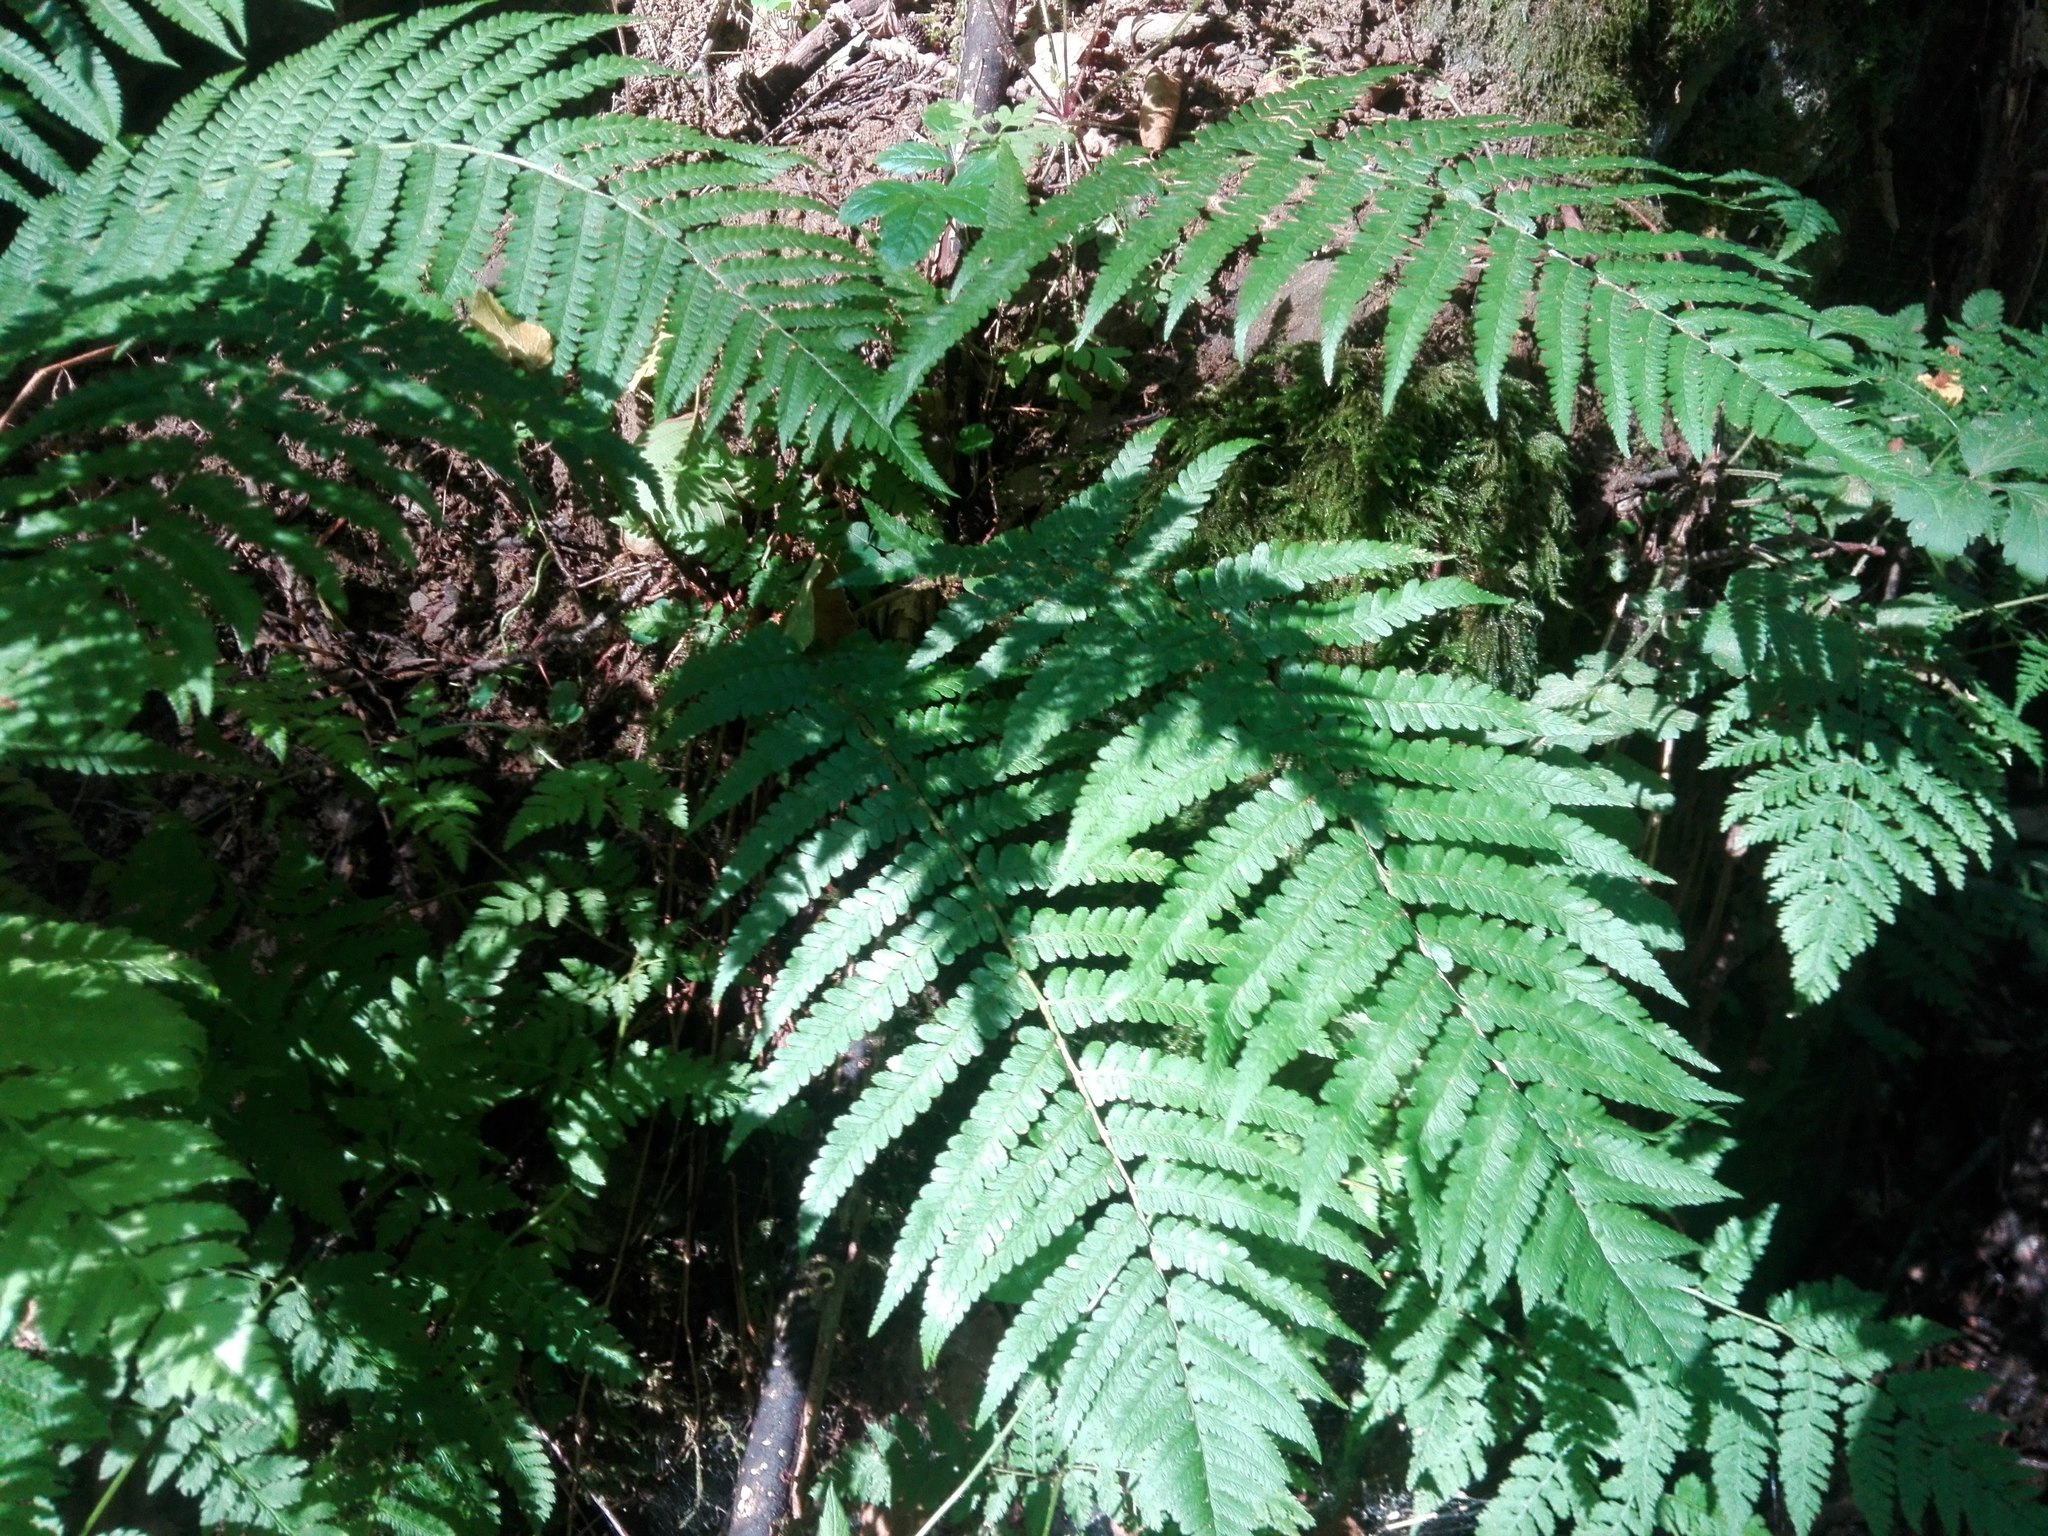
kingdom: Plantae
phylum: Tracheophyta
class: Polypodiopsida
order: Polypodiales
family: Dryopteridaceae
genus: Dryopteris
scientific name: Dryopteris filix-mas
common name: Male fern
